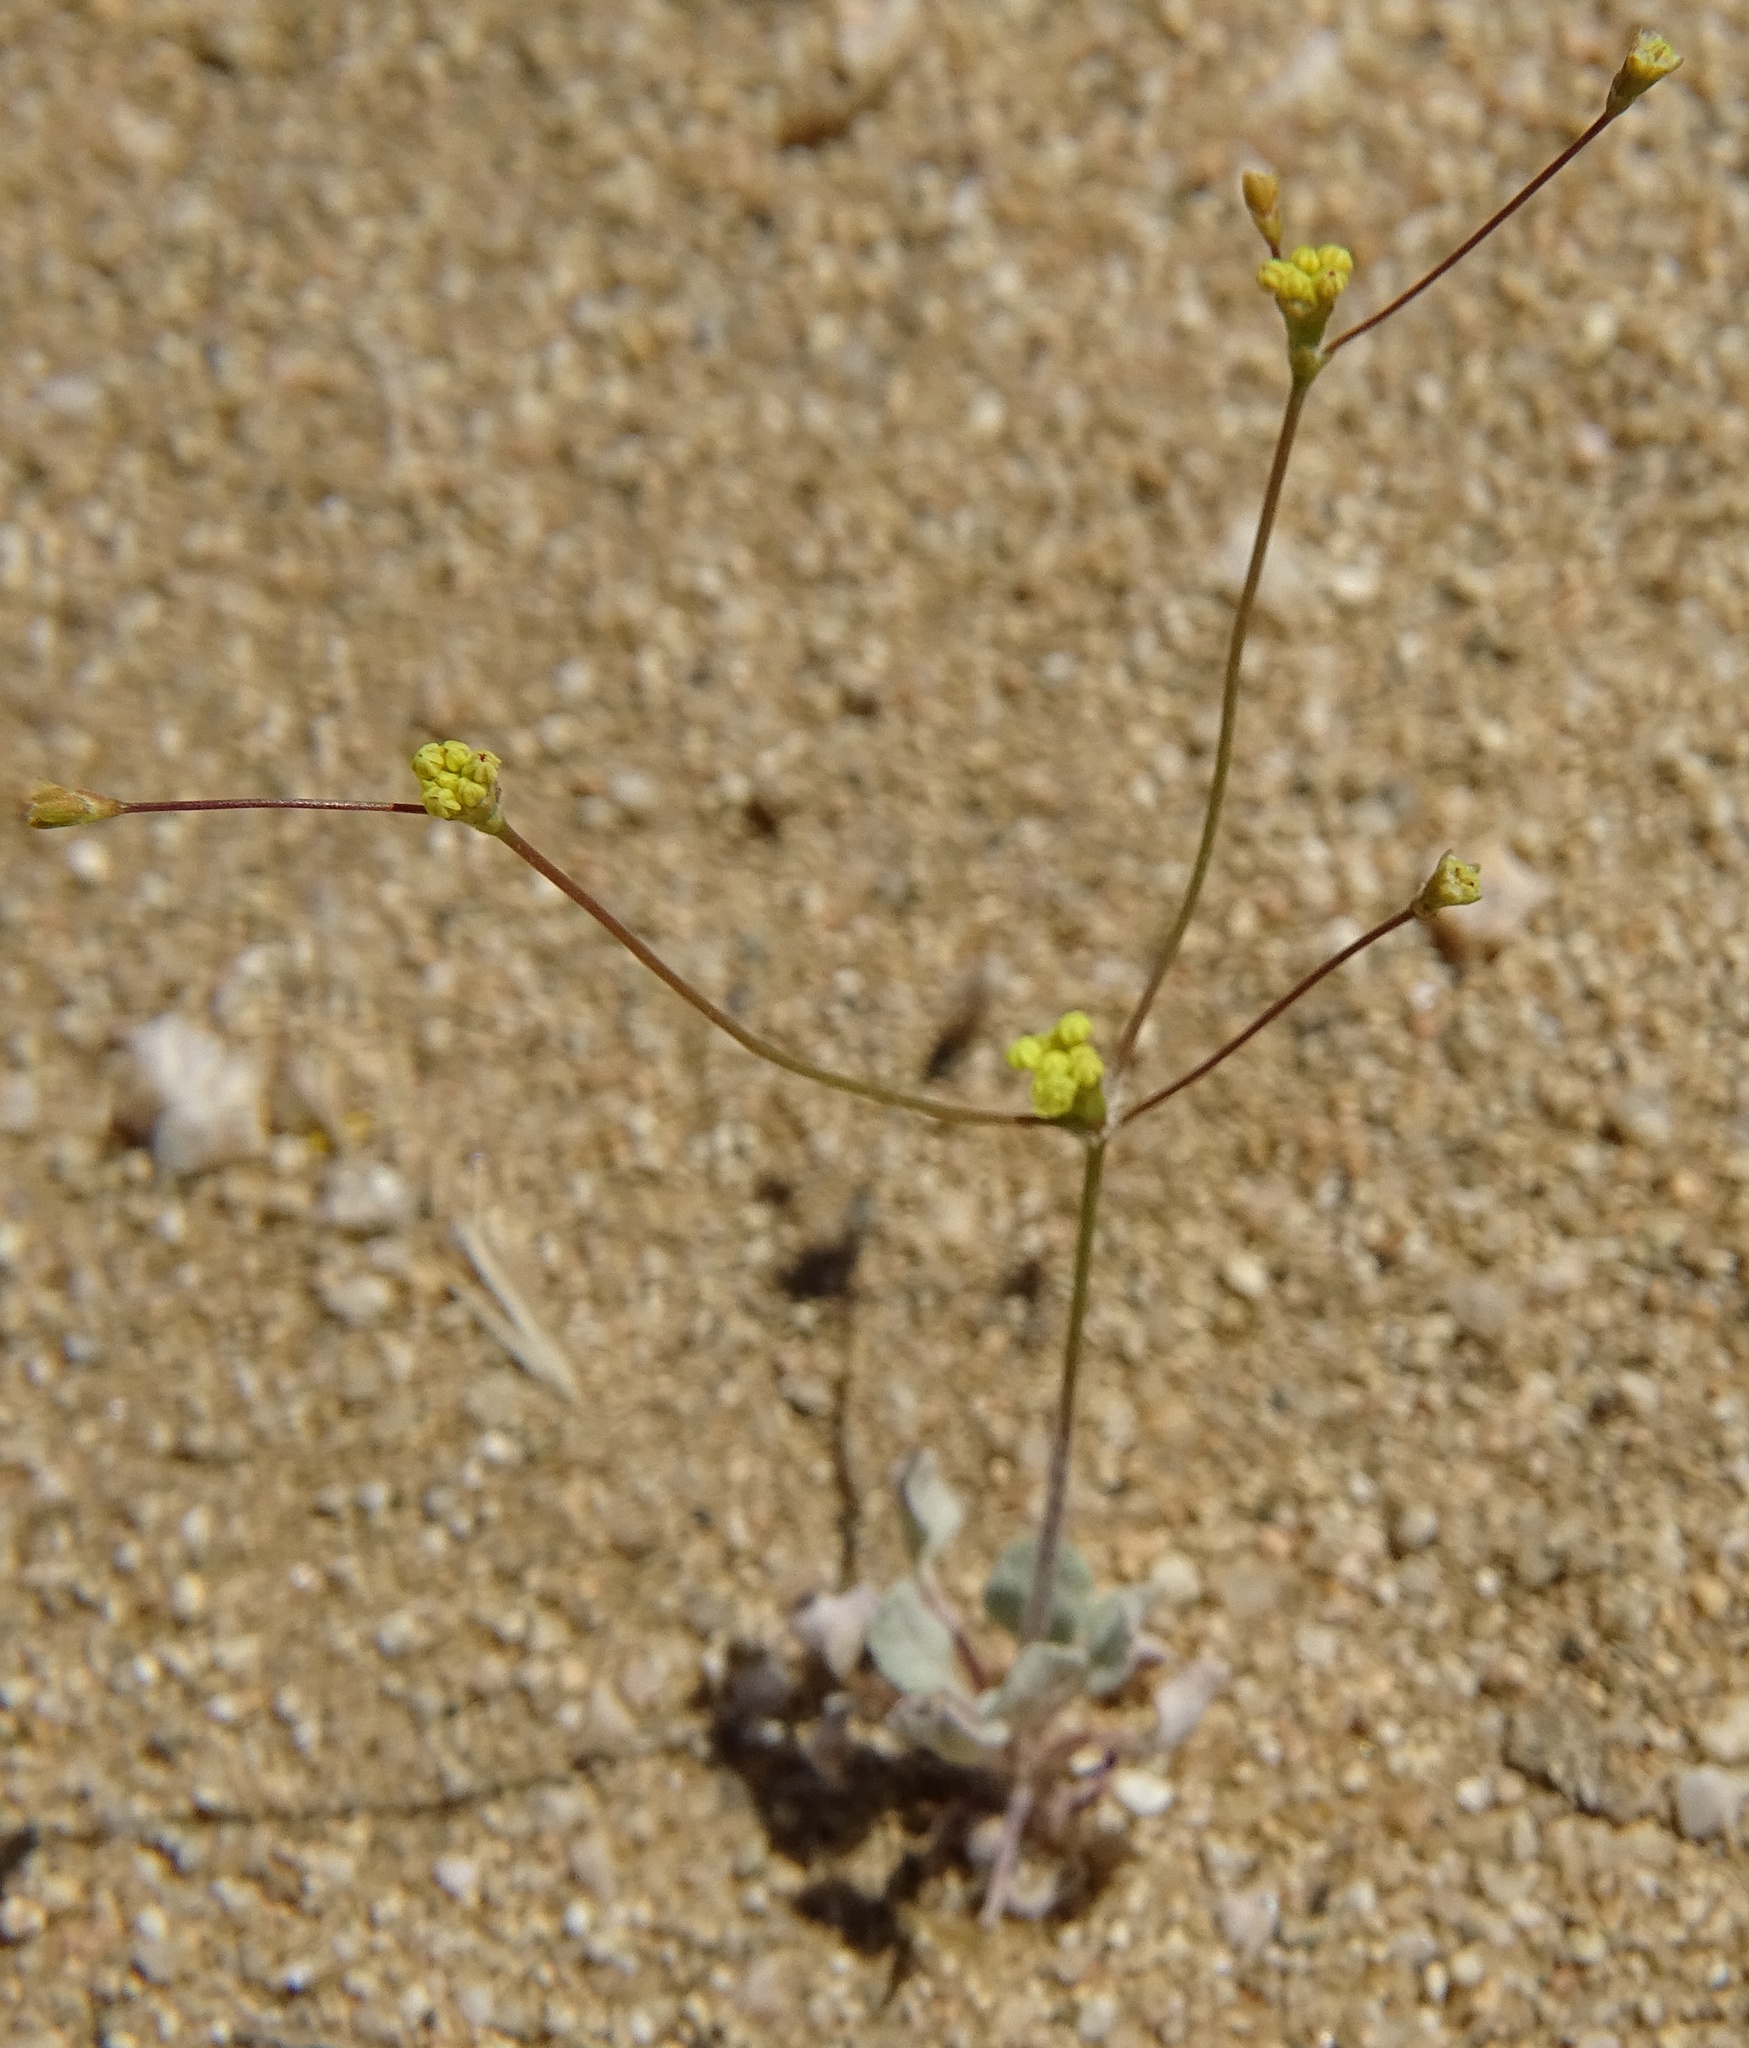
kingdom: Plantae
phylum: Tracheophyta
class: Magnoliopsida
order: Caryophyllales
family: Polygonaceae
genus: Eriogonum
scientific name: Eriogonum reniforme
